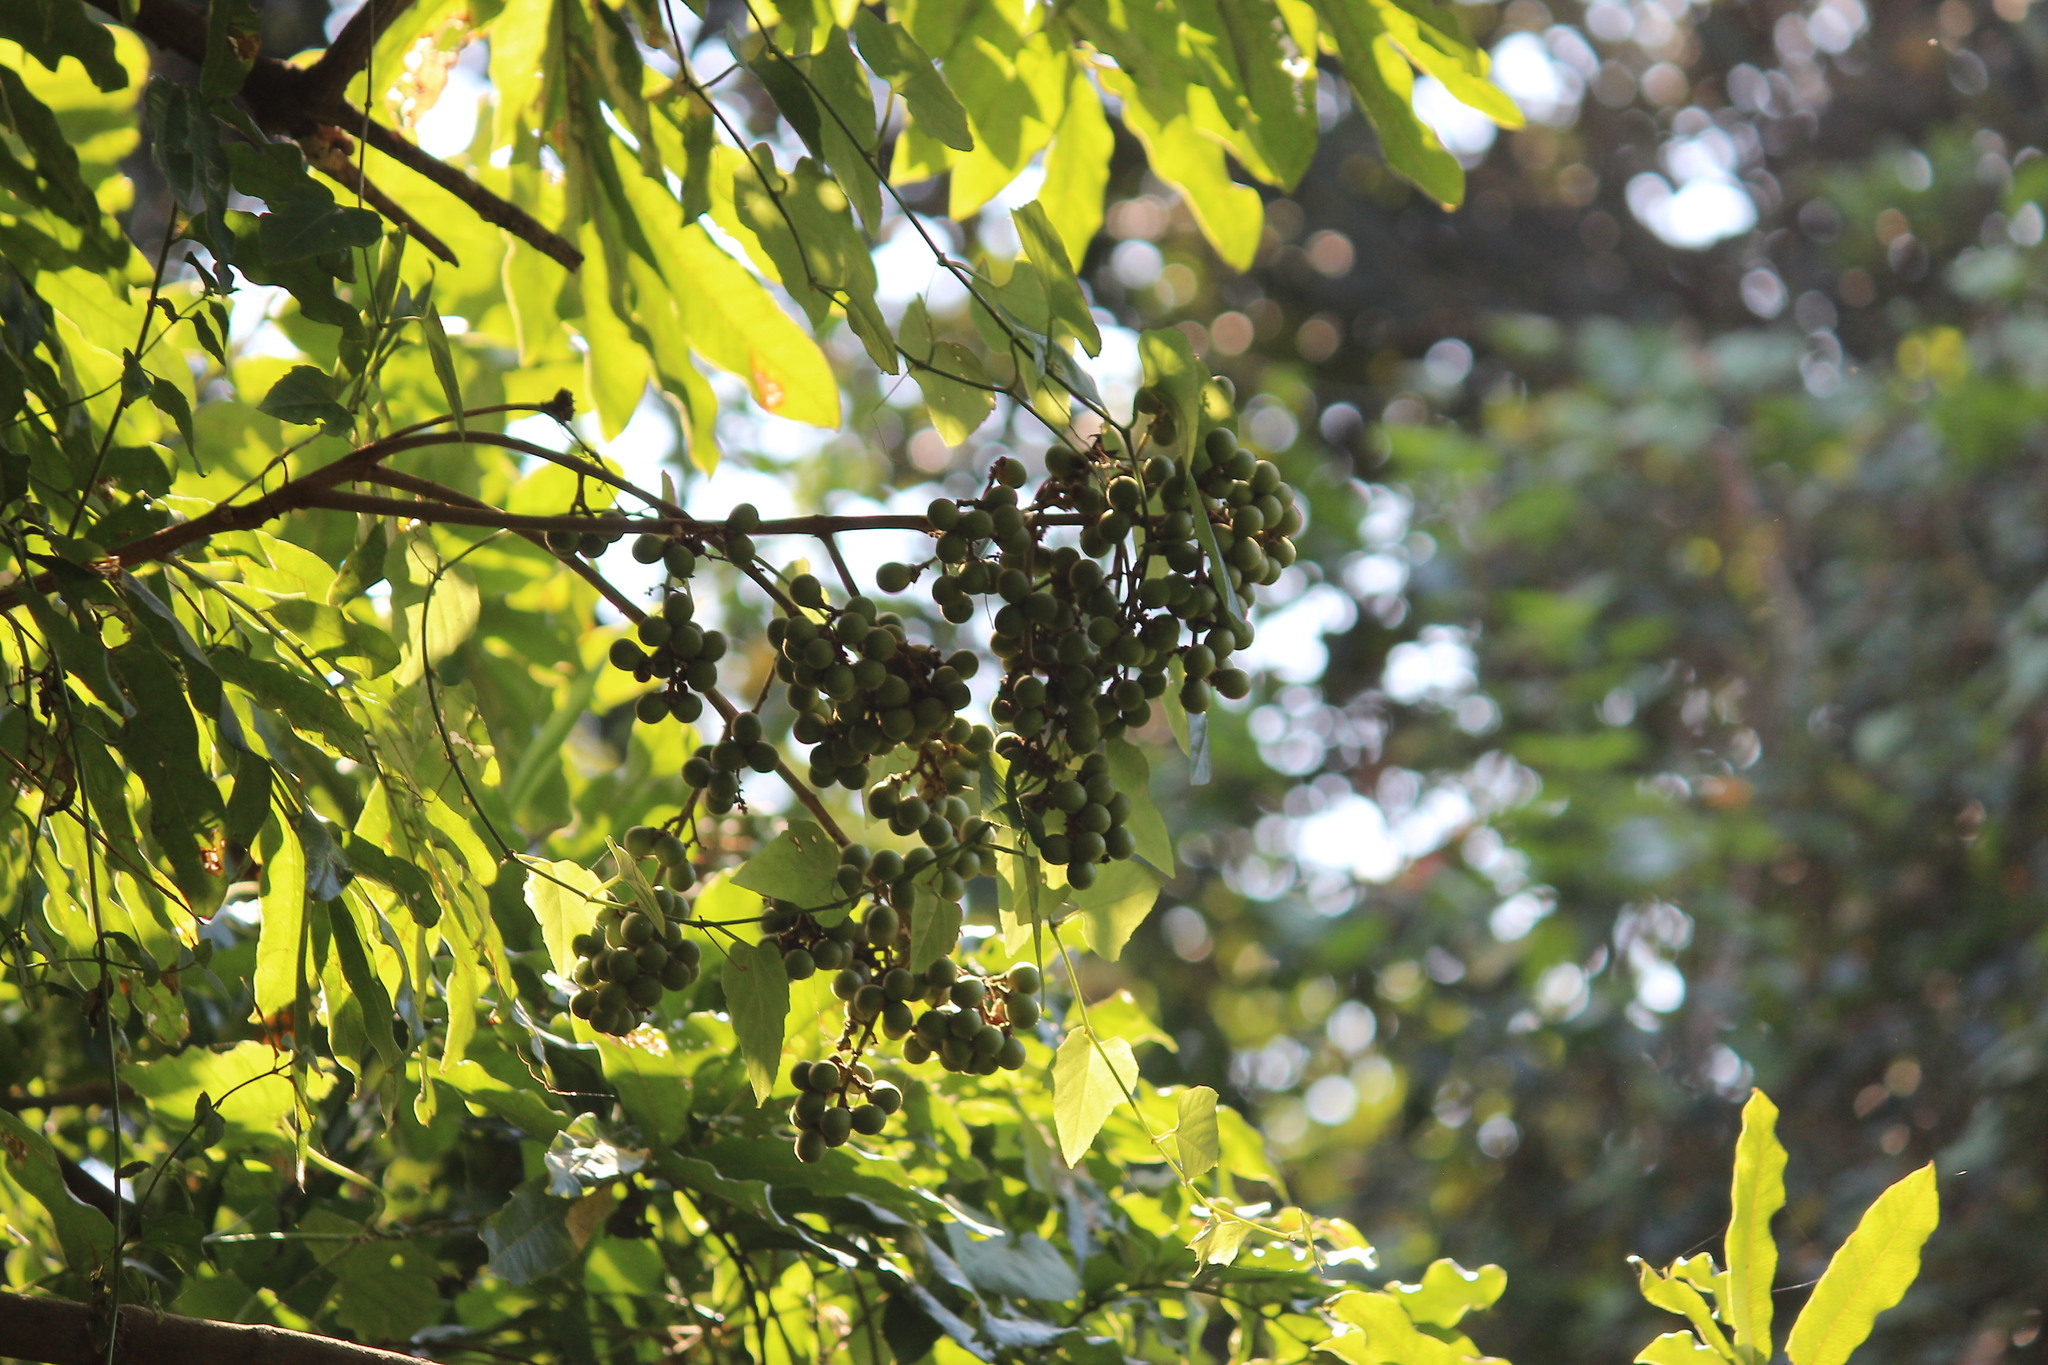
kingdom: Plantae
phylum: Tracheophyta
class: Magnoliopsida
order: Sapindales
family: Sapindaceae
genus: Deinbollia
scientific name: Deinbollia oblongifolia
